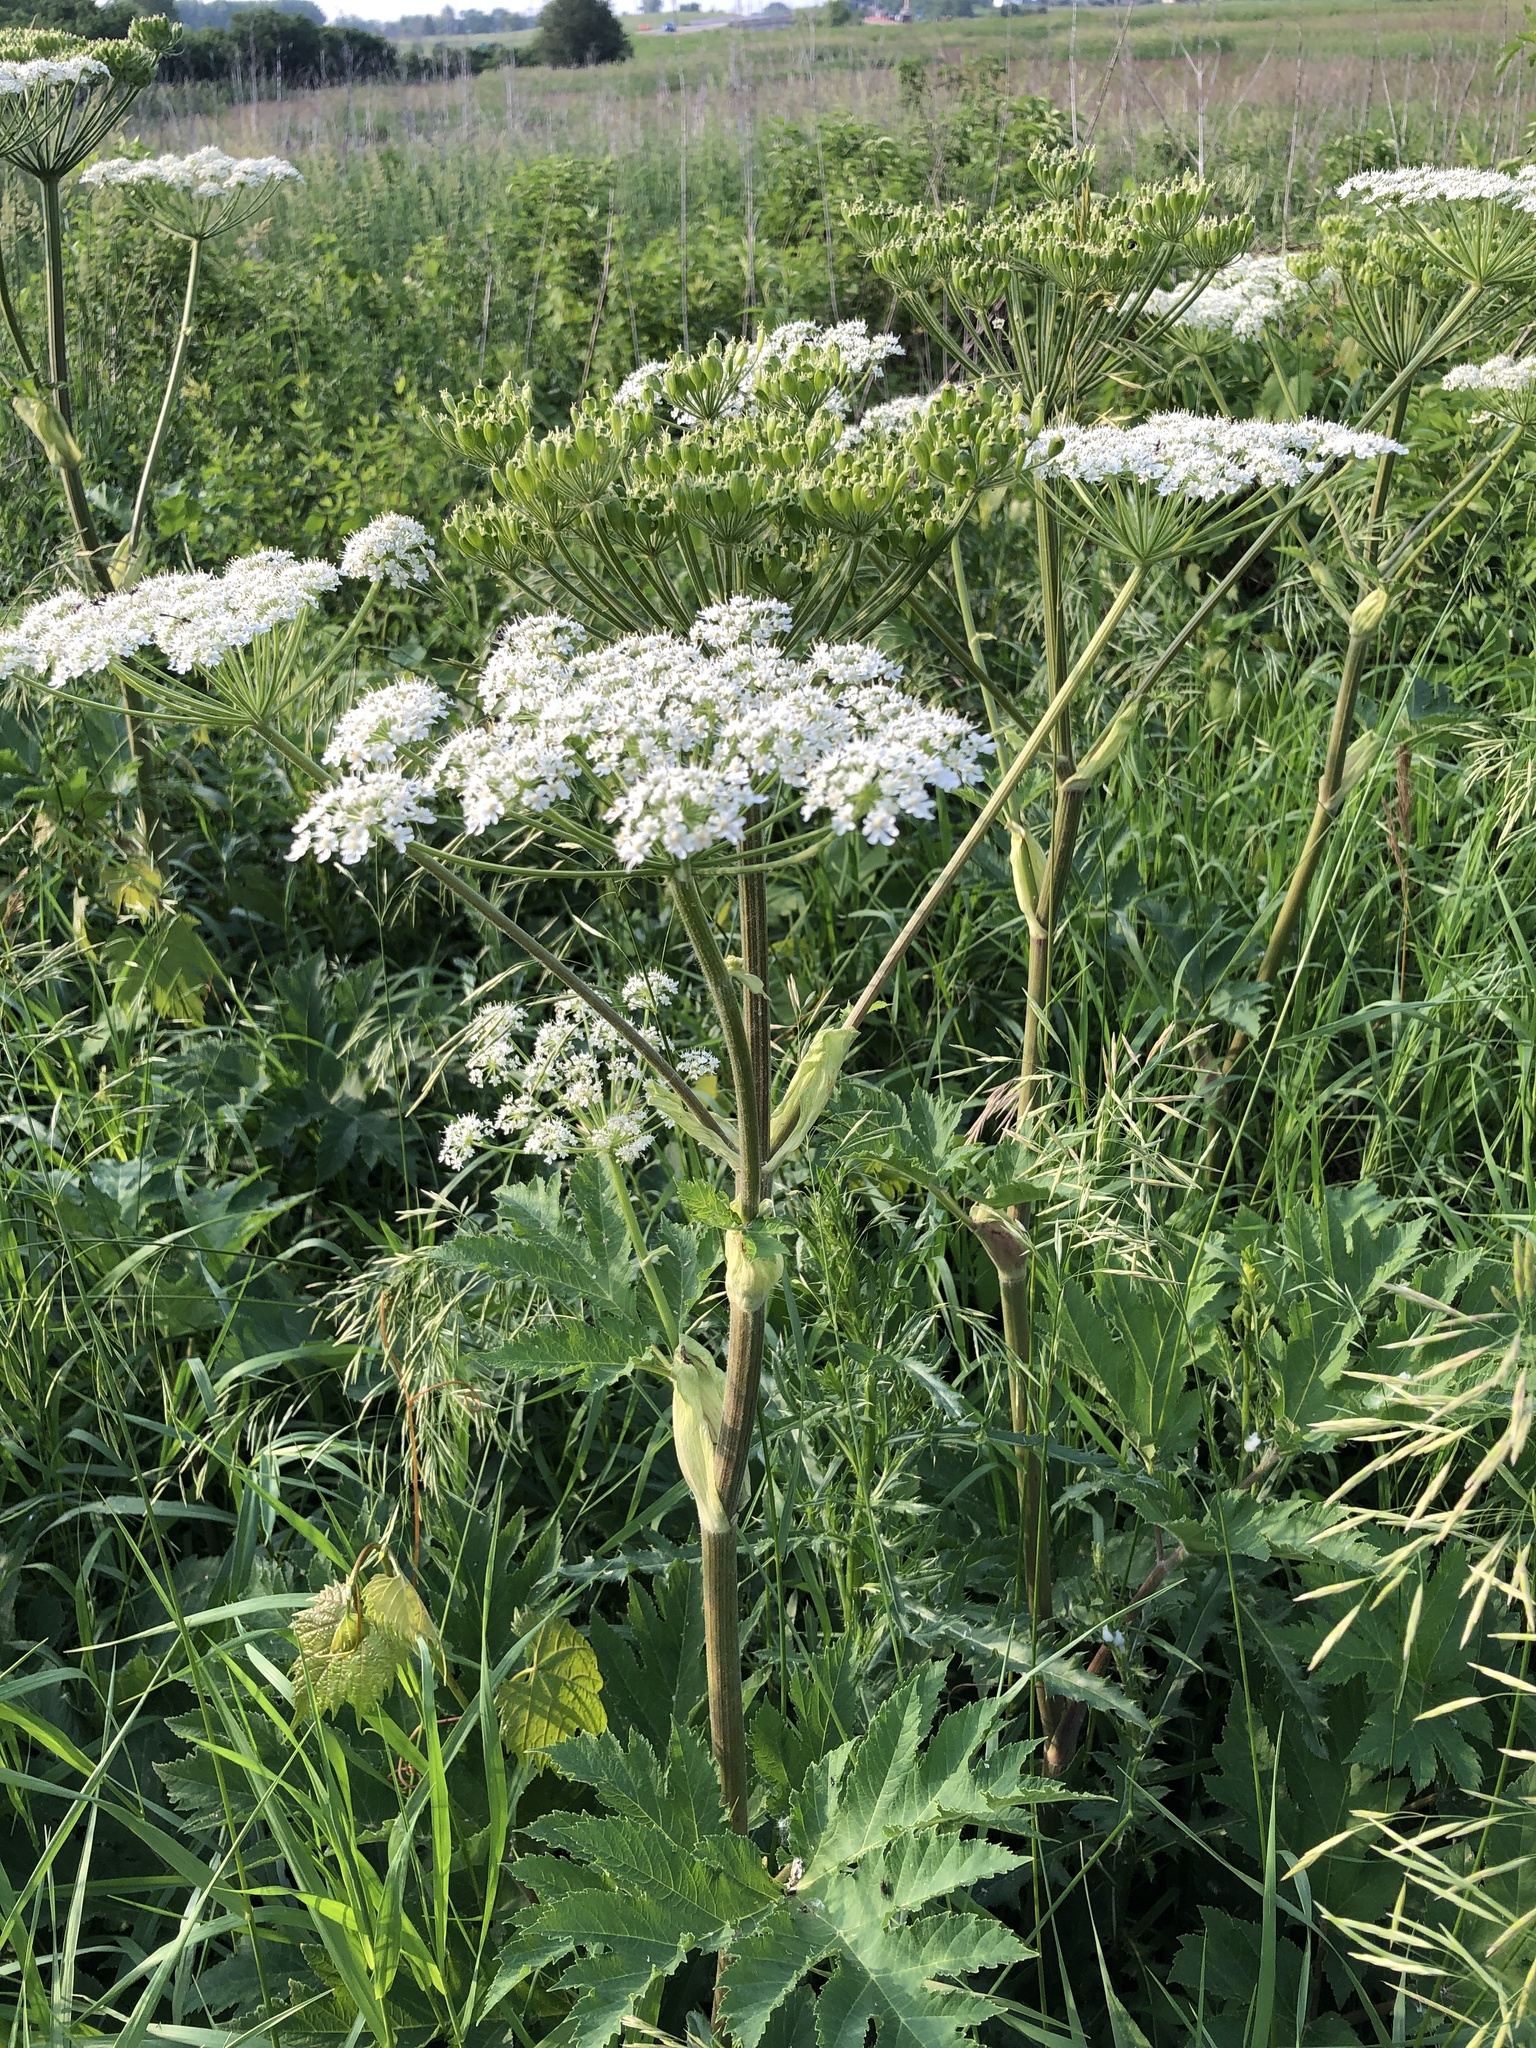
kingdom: Plantae
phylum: Tracheophyta
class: Magnoliopsida
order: Apiales
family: Apiaceae
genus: Heracleum
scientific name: Heracleum maximum
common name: American cow parsnip
